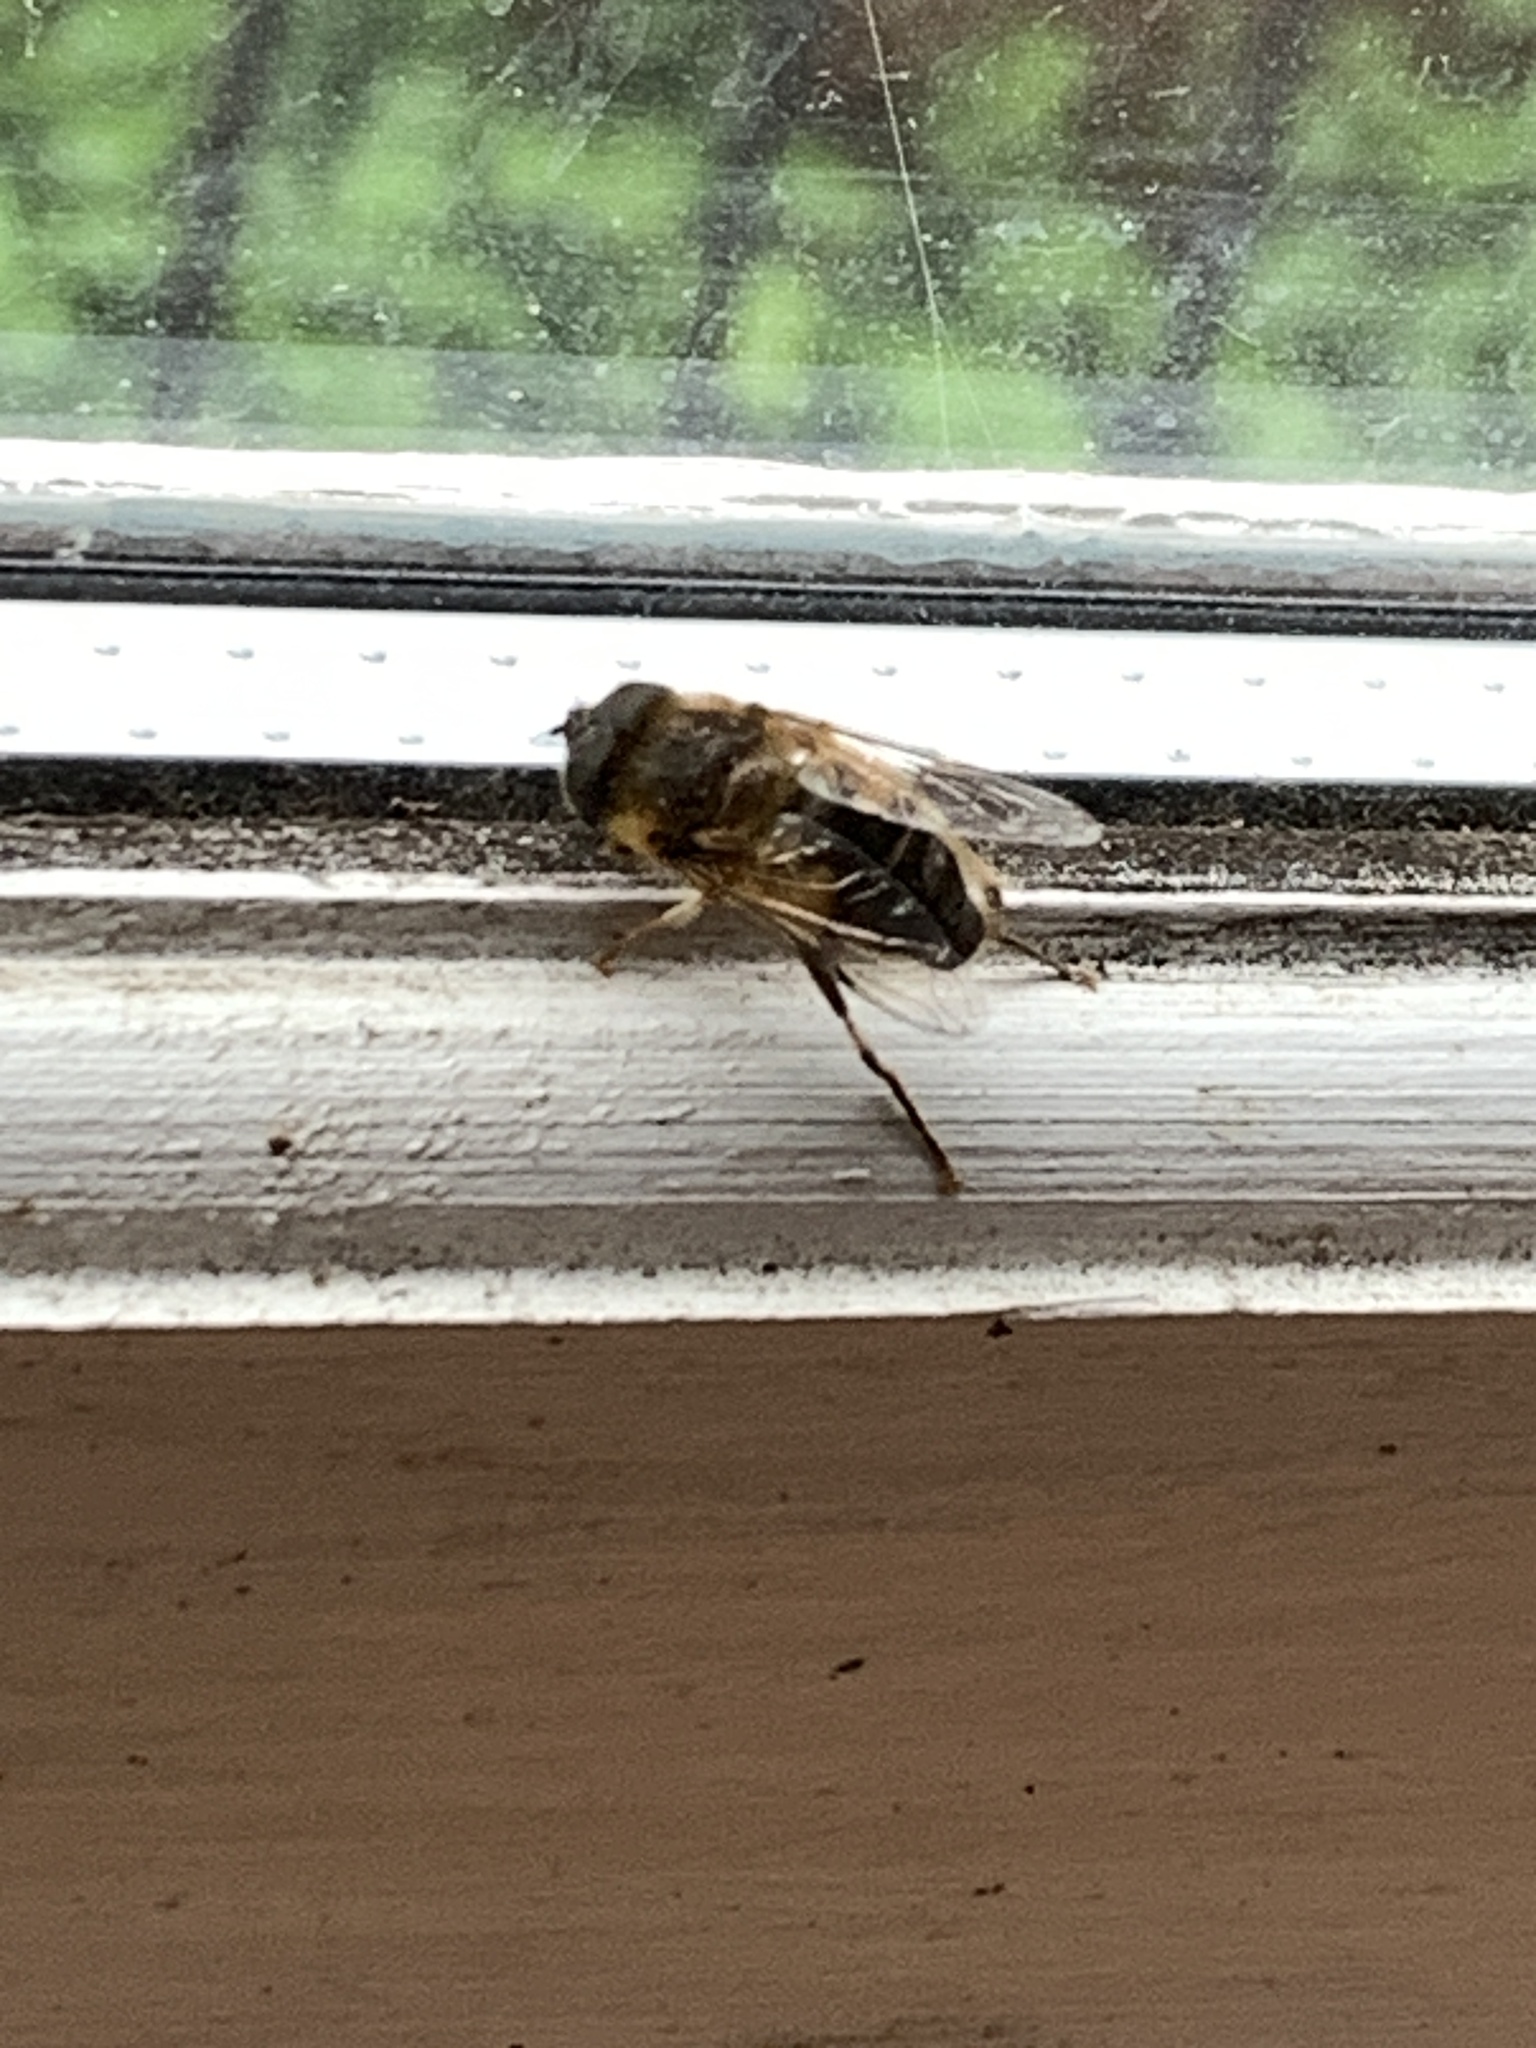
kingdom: Animalia
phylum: Arthropoda
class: Insecta
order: Diptera
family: Syrphidae
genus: Eristalis
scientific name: Eristalis pertinax
